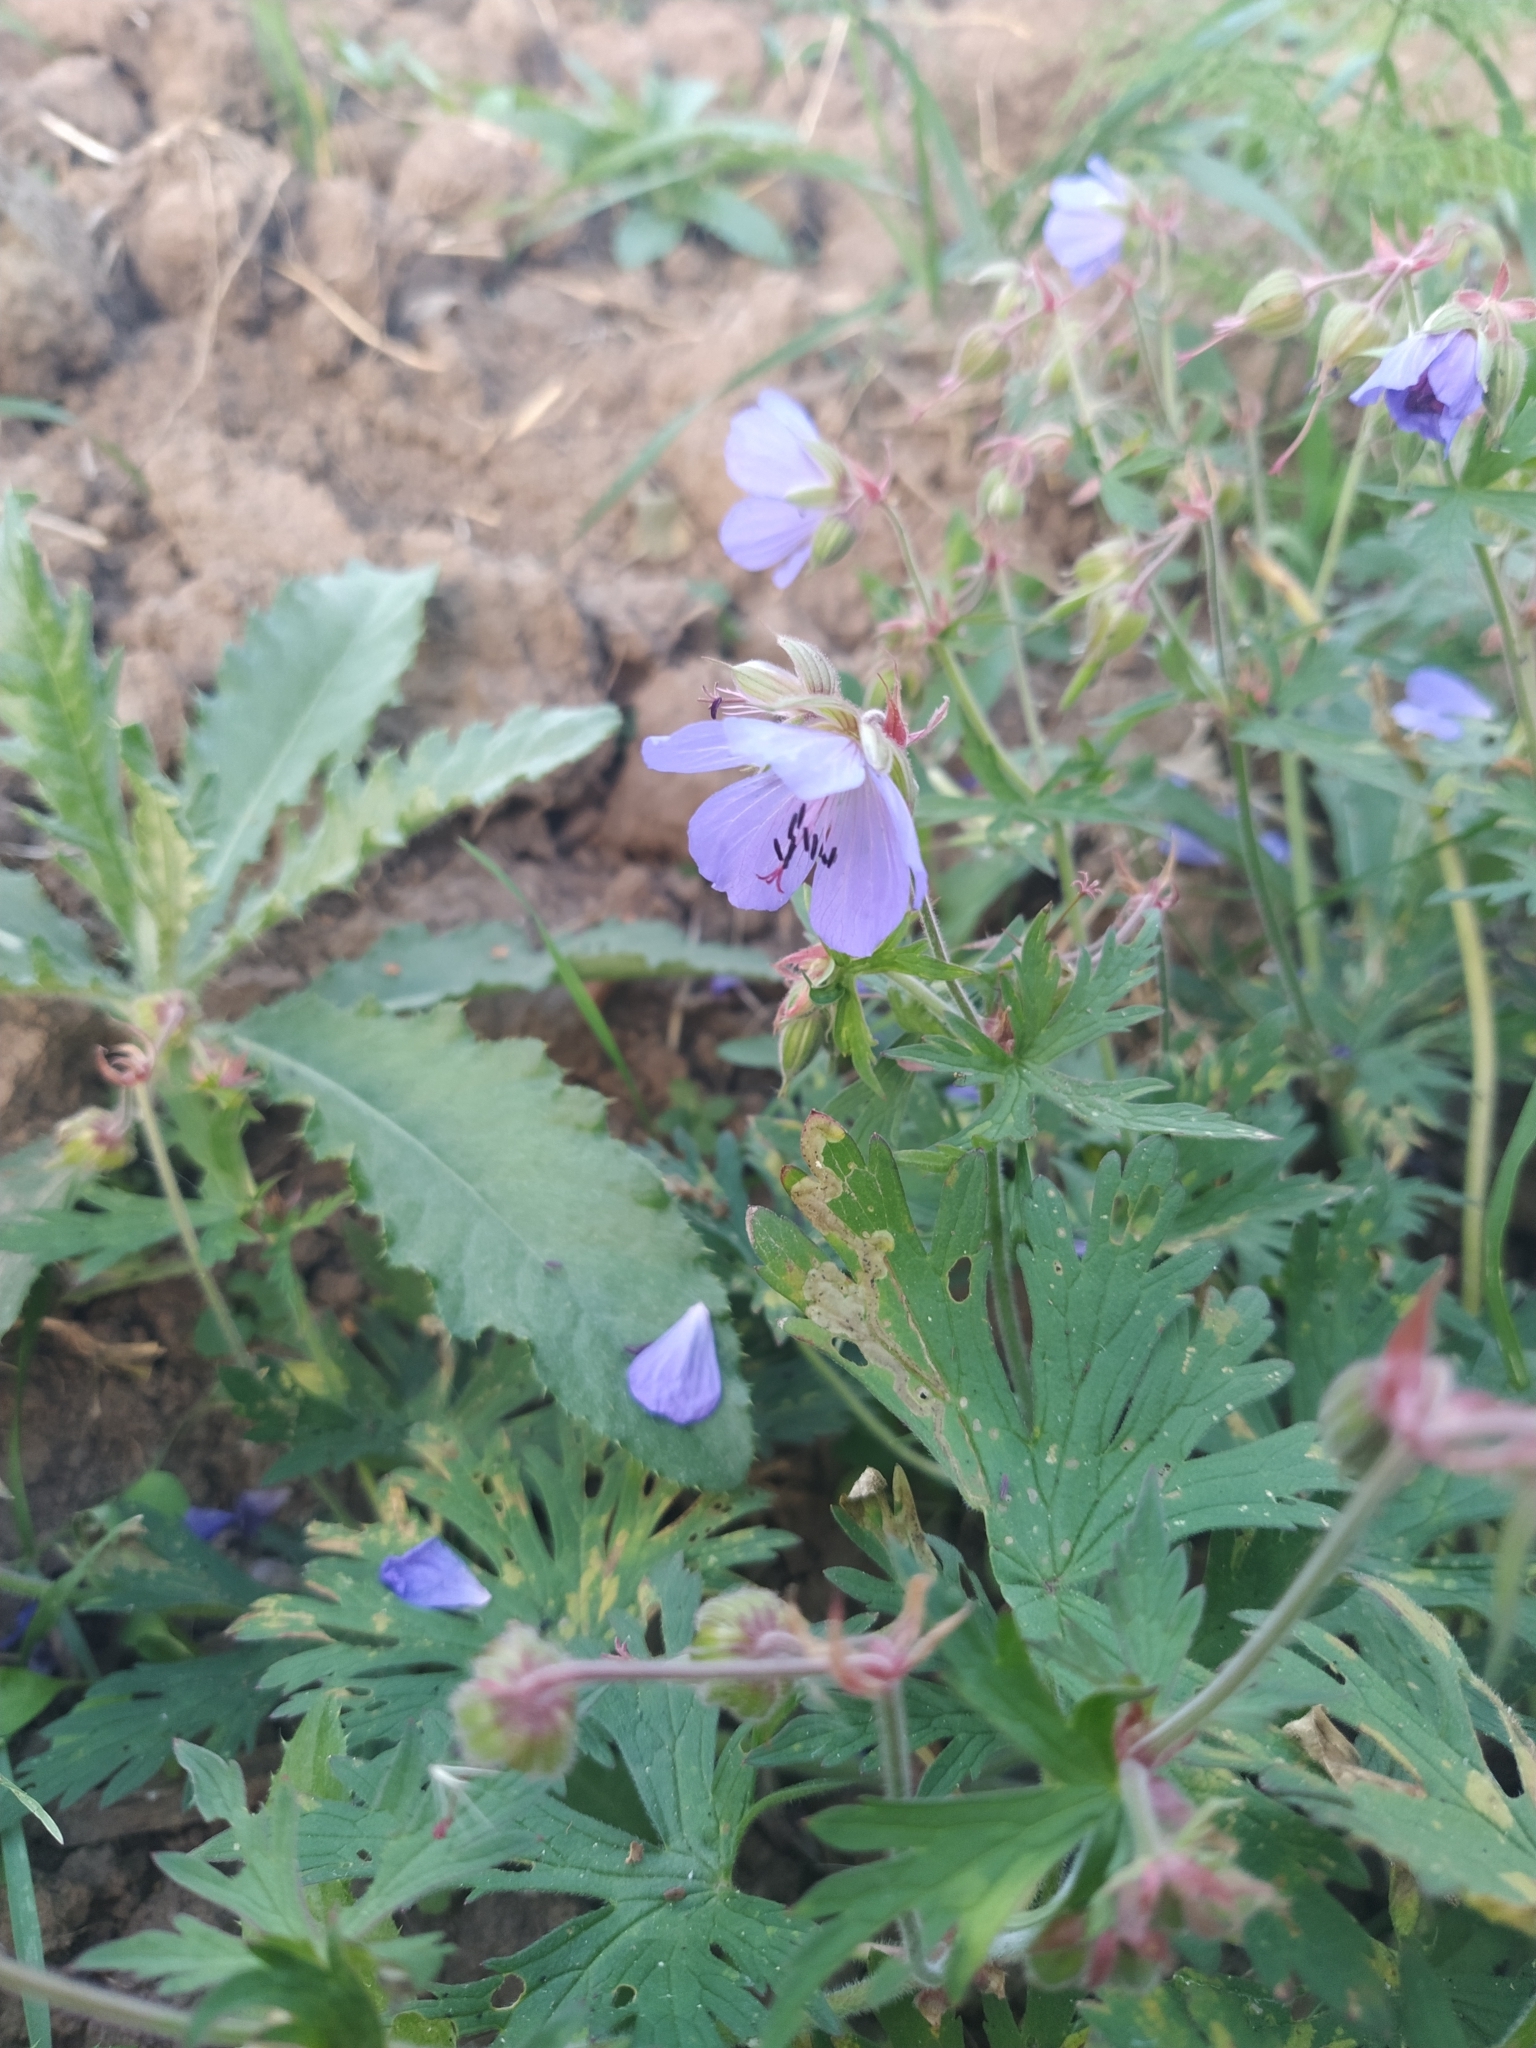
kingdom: Plantae
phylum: Tracheophyta
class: Magnoliopsida
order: Geraniales
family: Geraniaceae
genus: Geranium
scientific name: Geranium pratense
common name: Meadow crane's-bill
